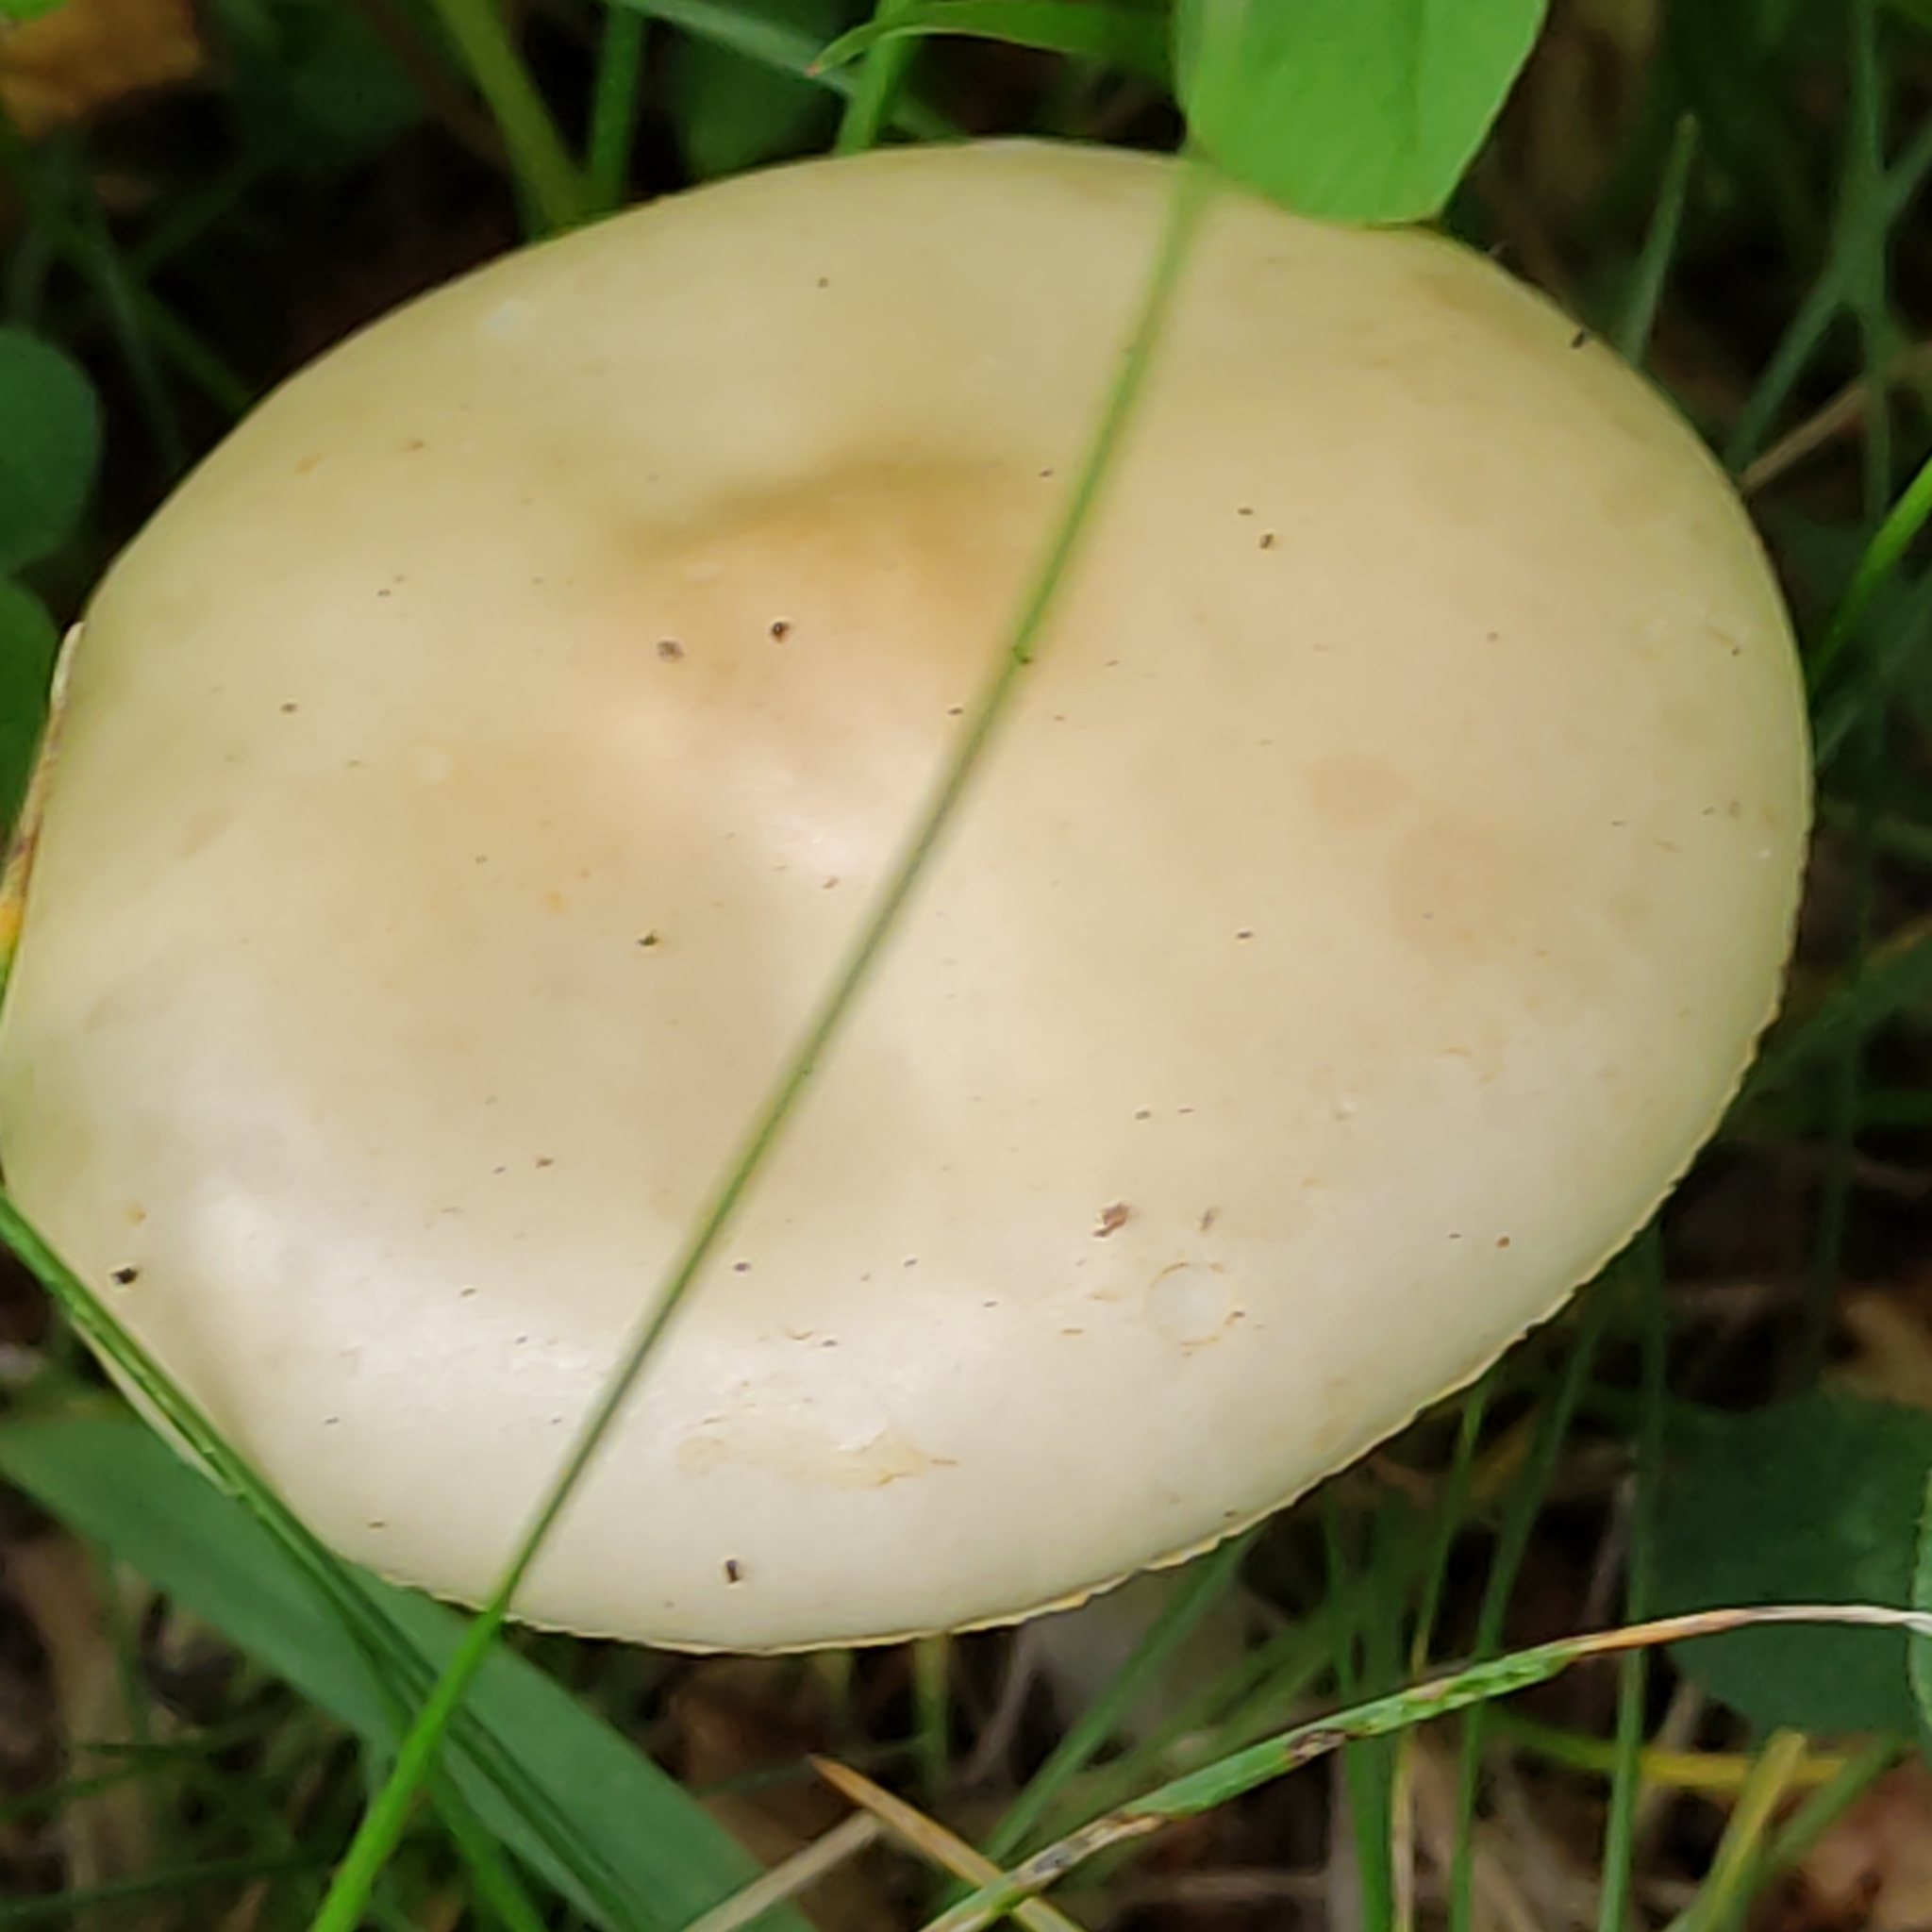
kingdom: Fungi
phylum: Basidiomycota
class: Agaricomycetes
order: Agaricales
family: Strophariaceae
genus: Agrocybe
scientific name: Agrocybe pediades
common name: Common fieldcap
